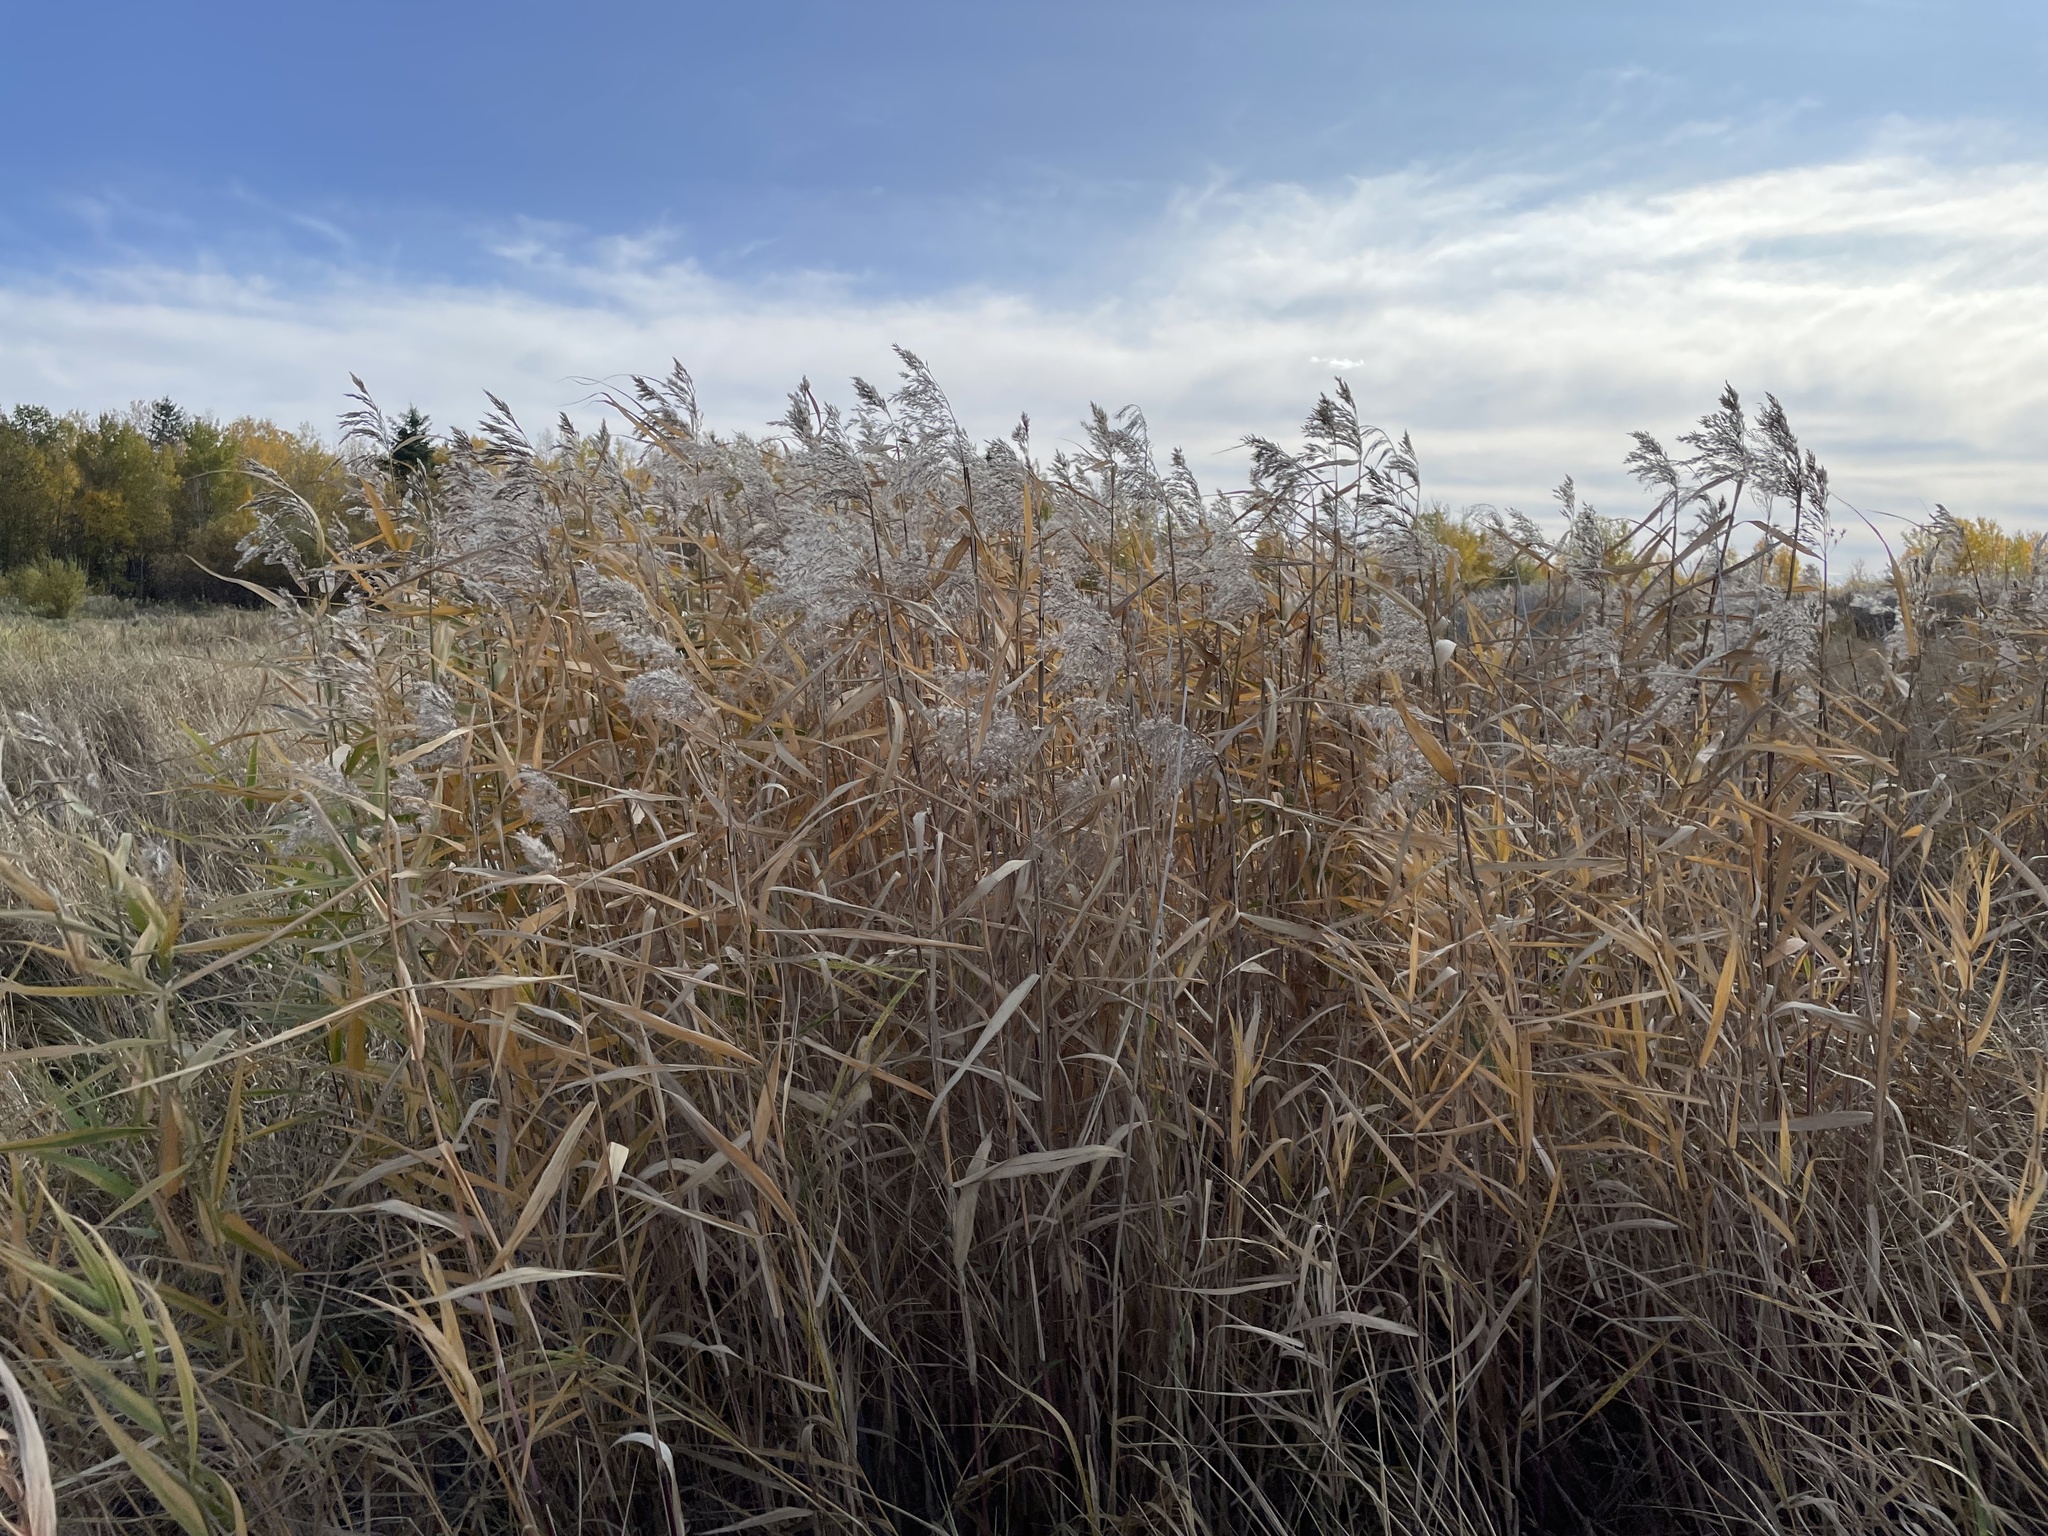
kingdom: Plantae
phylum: Tracheophyta
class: Liliopsida
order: Poales
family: Poaceae
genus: Phragmites
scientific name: Phragmites australis
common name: Common reed
